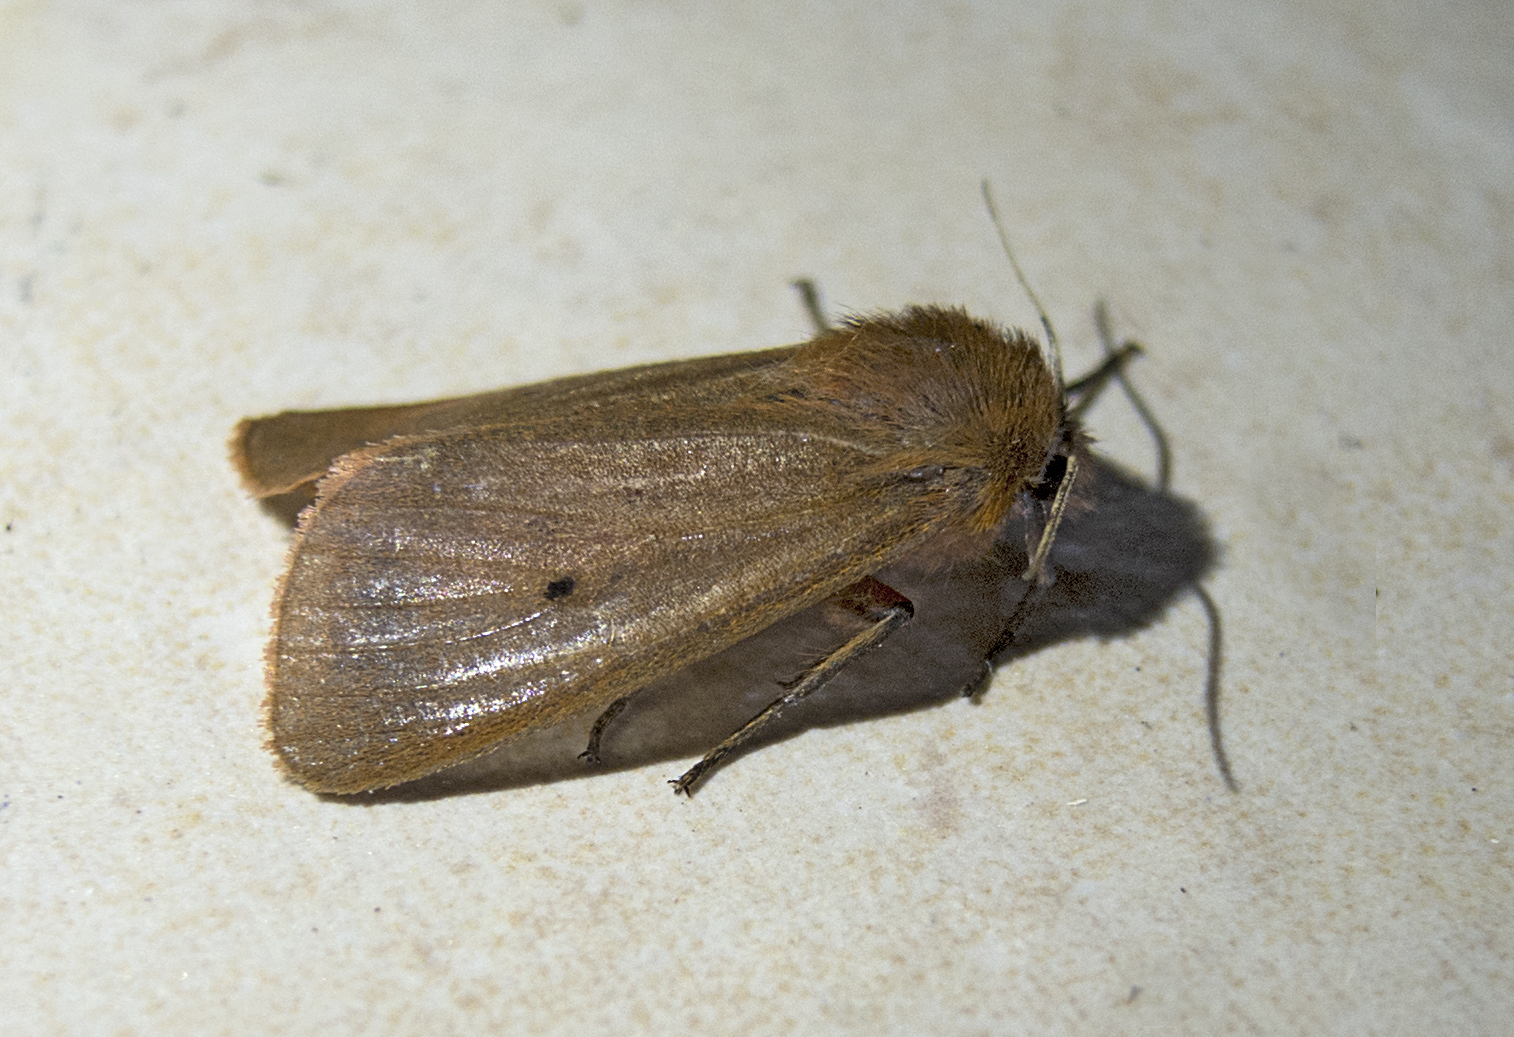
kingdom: Animalia
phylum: Arthropoda
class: Insecta
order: Lepidoptera
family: Erebidae
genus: Phragmatobia
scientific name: Phragmatobia fuliginosa
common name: Ruby tiger
